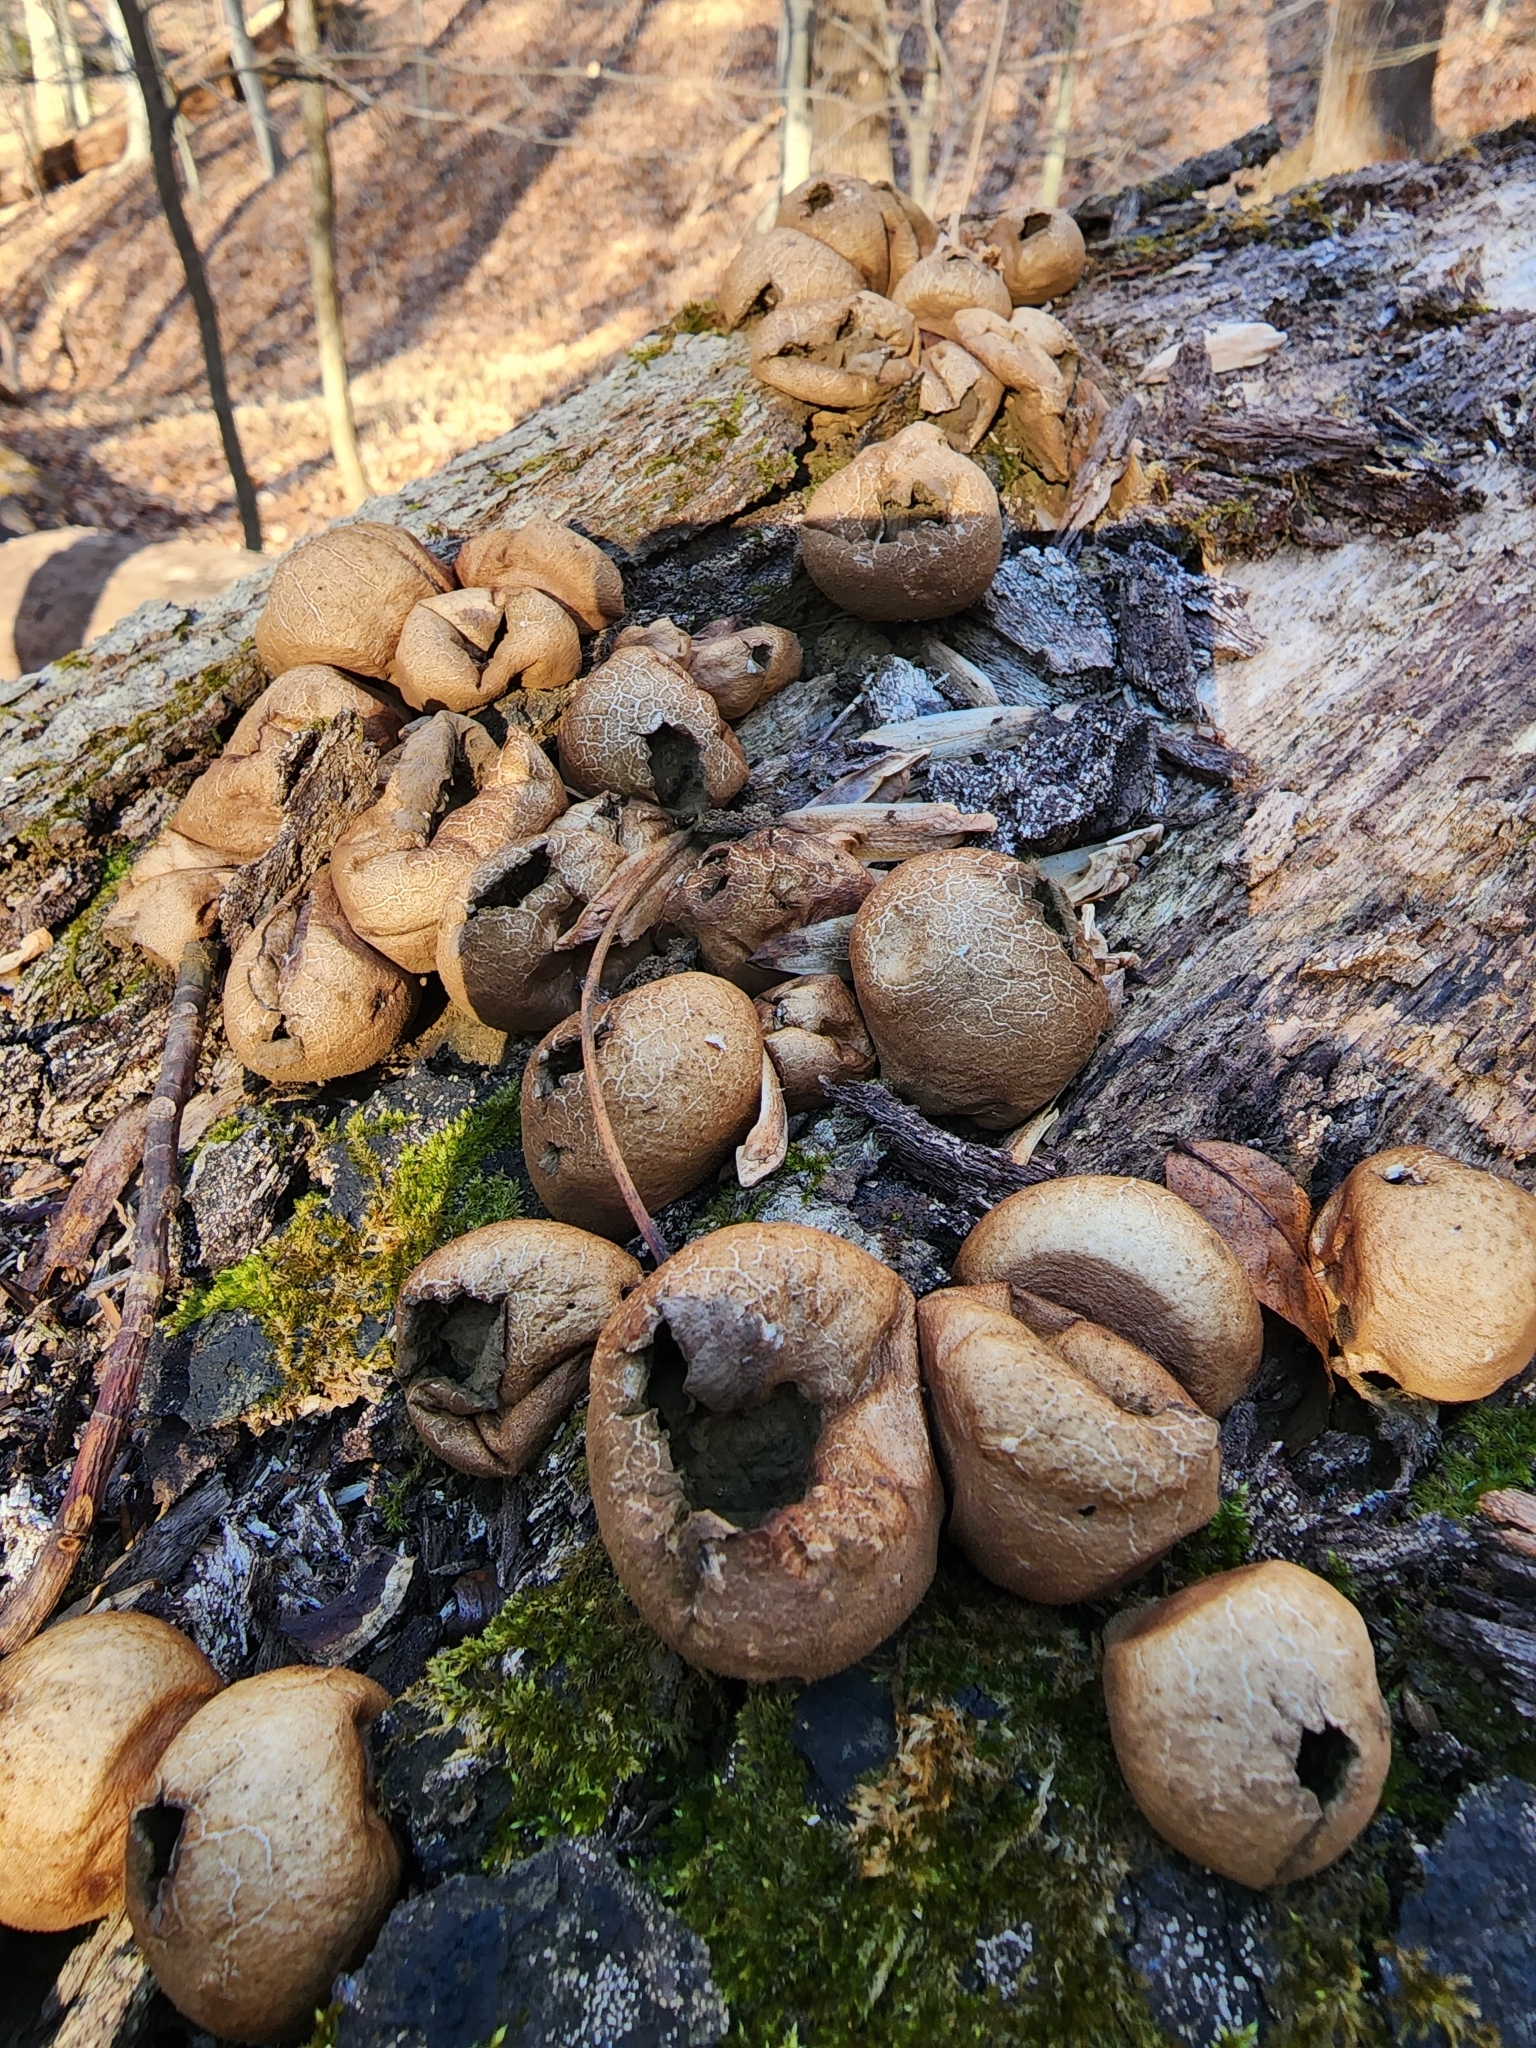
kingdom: Fungi
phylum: Basidiomycota
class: Agaricomycetes
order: Agaricales
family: Lycoperdaceae
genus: Apioperdon
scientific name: Apioperdon pyriforme
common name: Pear-shaped puffball
